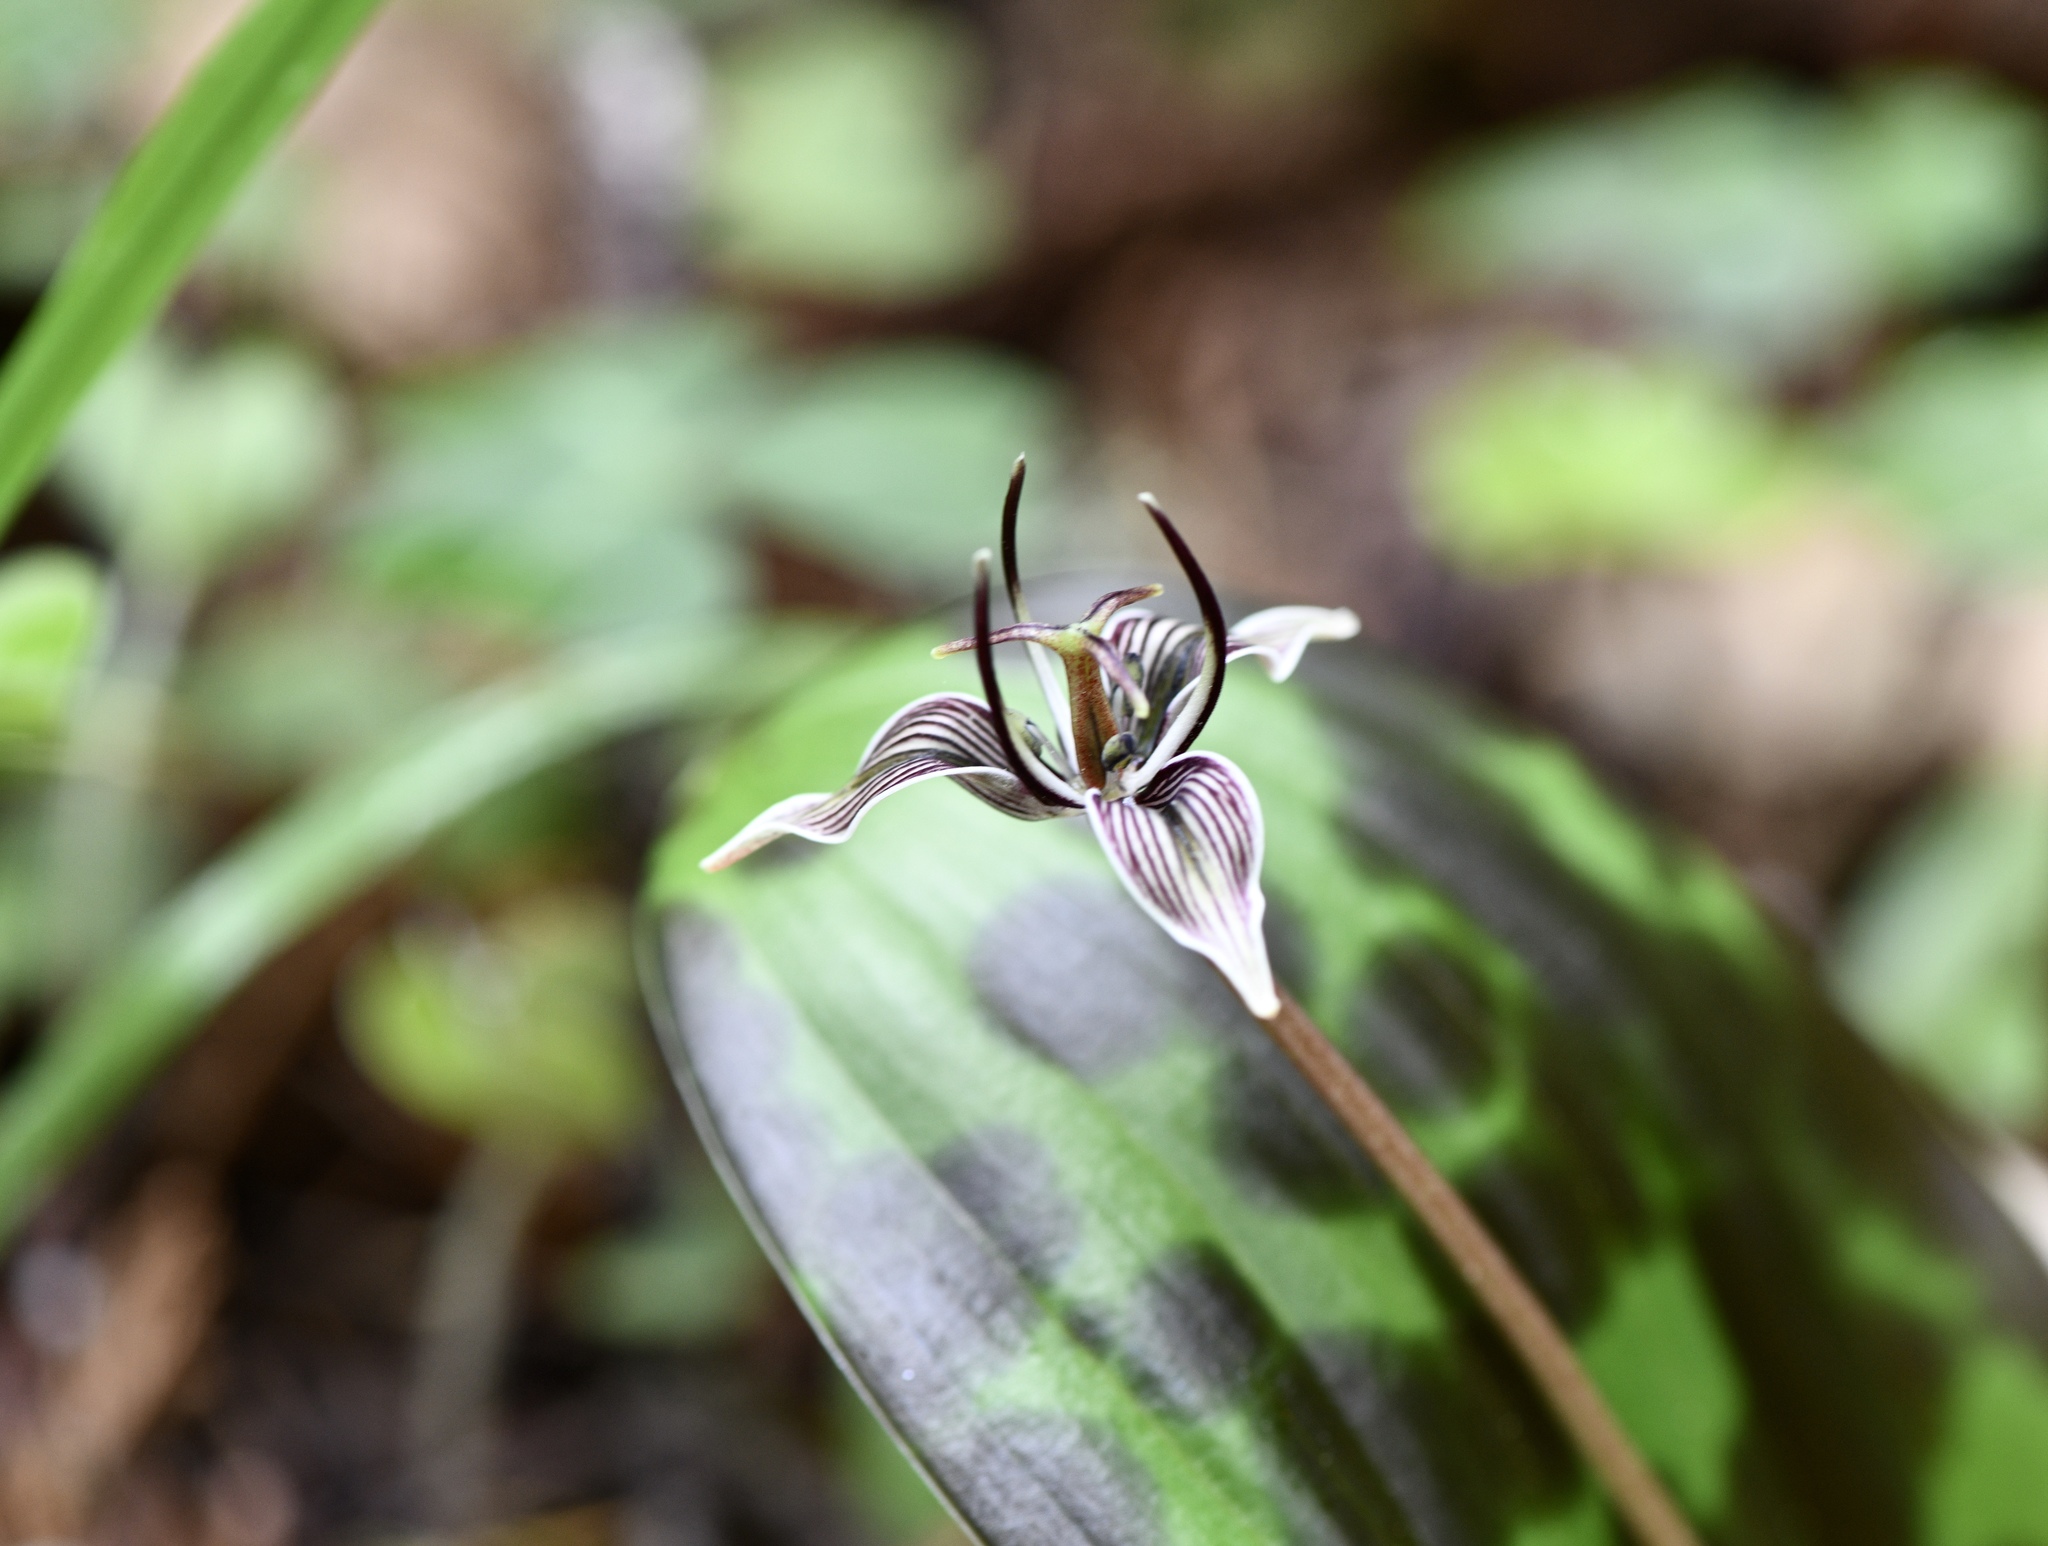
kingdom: Plantae
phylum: Tracheophyta
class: Liliopsida
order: Liliales
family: Liliaceae
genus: Scoliopus
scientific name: Scoliopus bigelovii
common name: Foetid adder's-tongue
